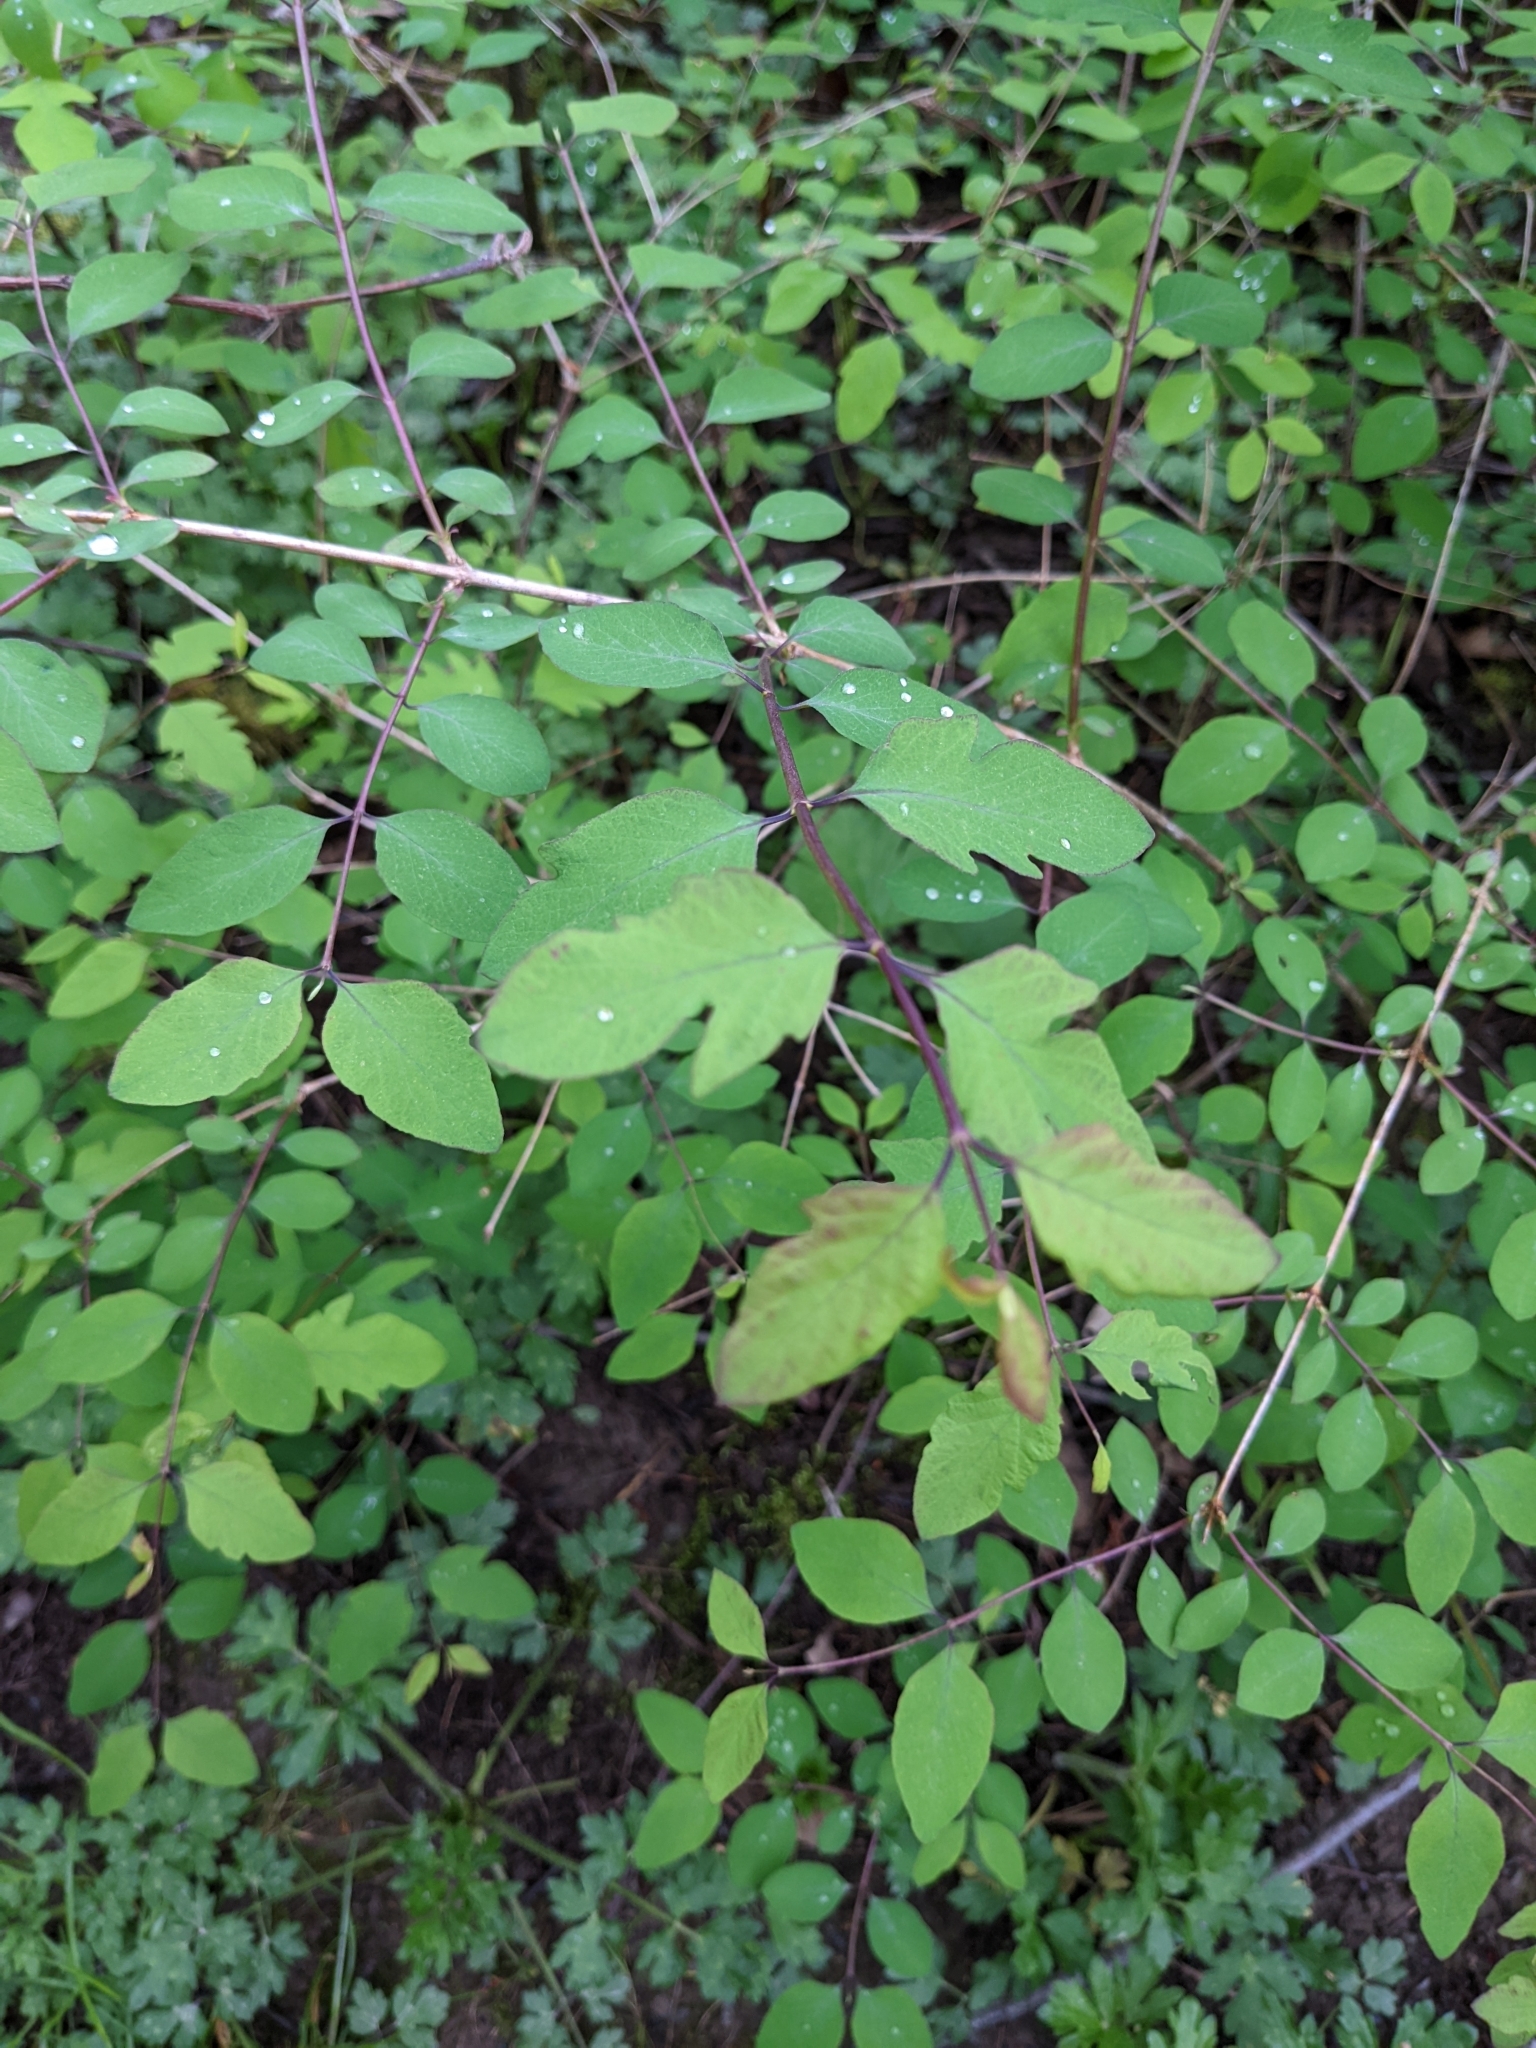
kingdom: Plantae
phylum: Tracheophyta
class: Magnoliopsida
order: Dipsacales
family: Caprifoliaceae
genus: Symphoricarpos
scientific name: Symphoricarpos albus
